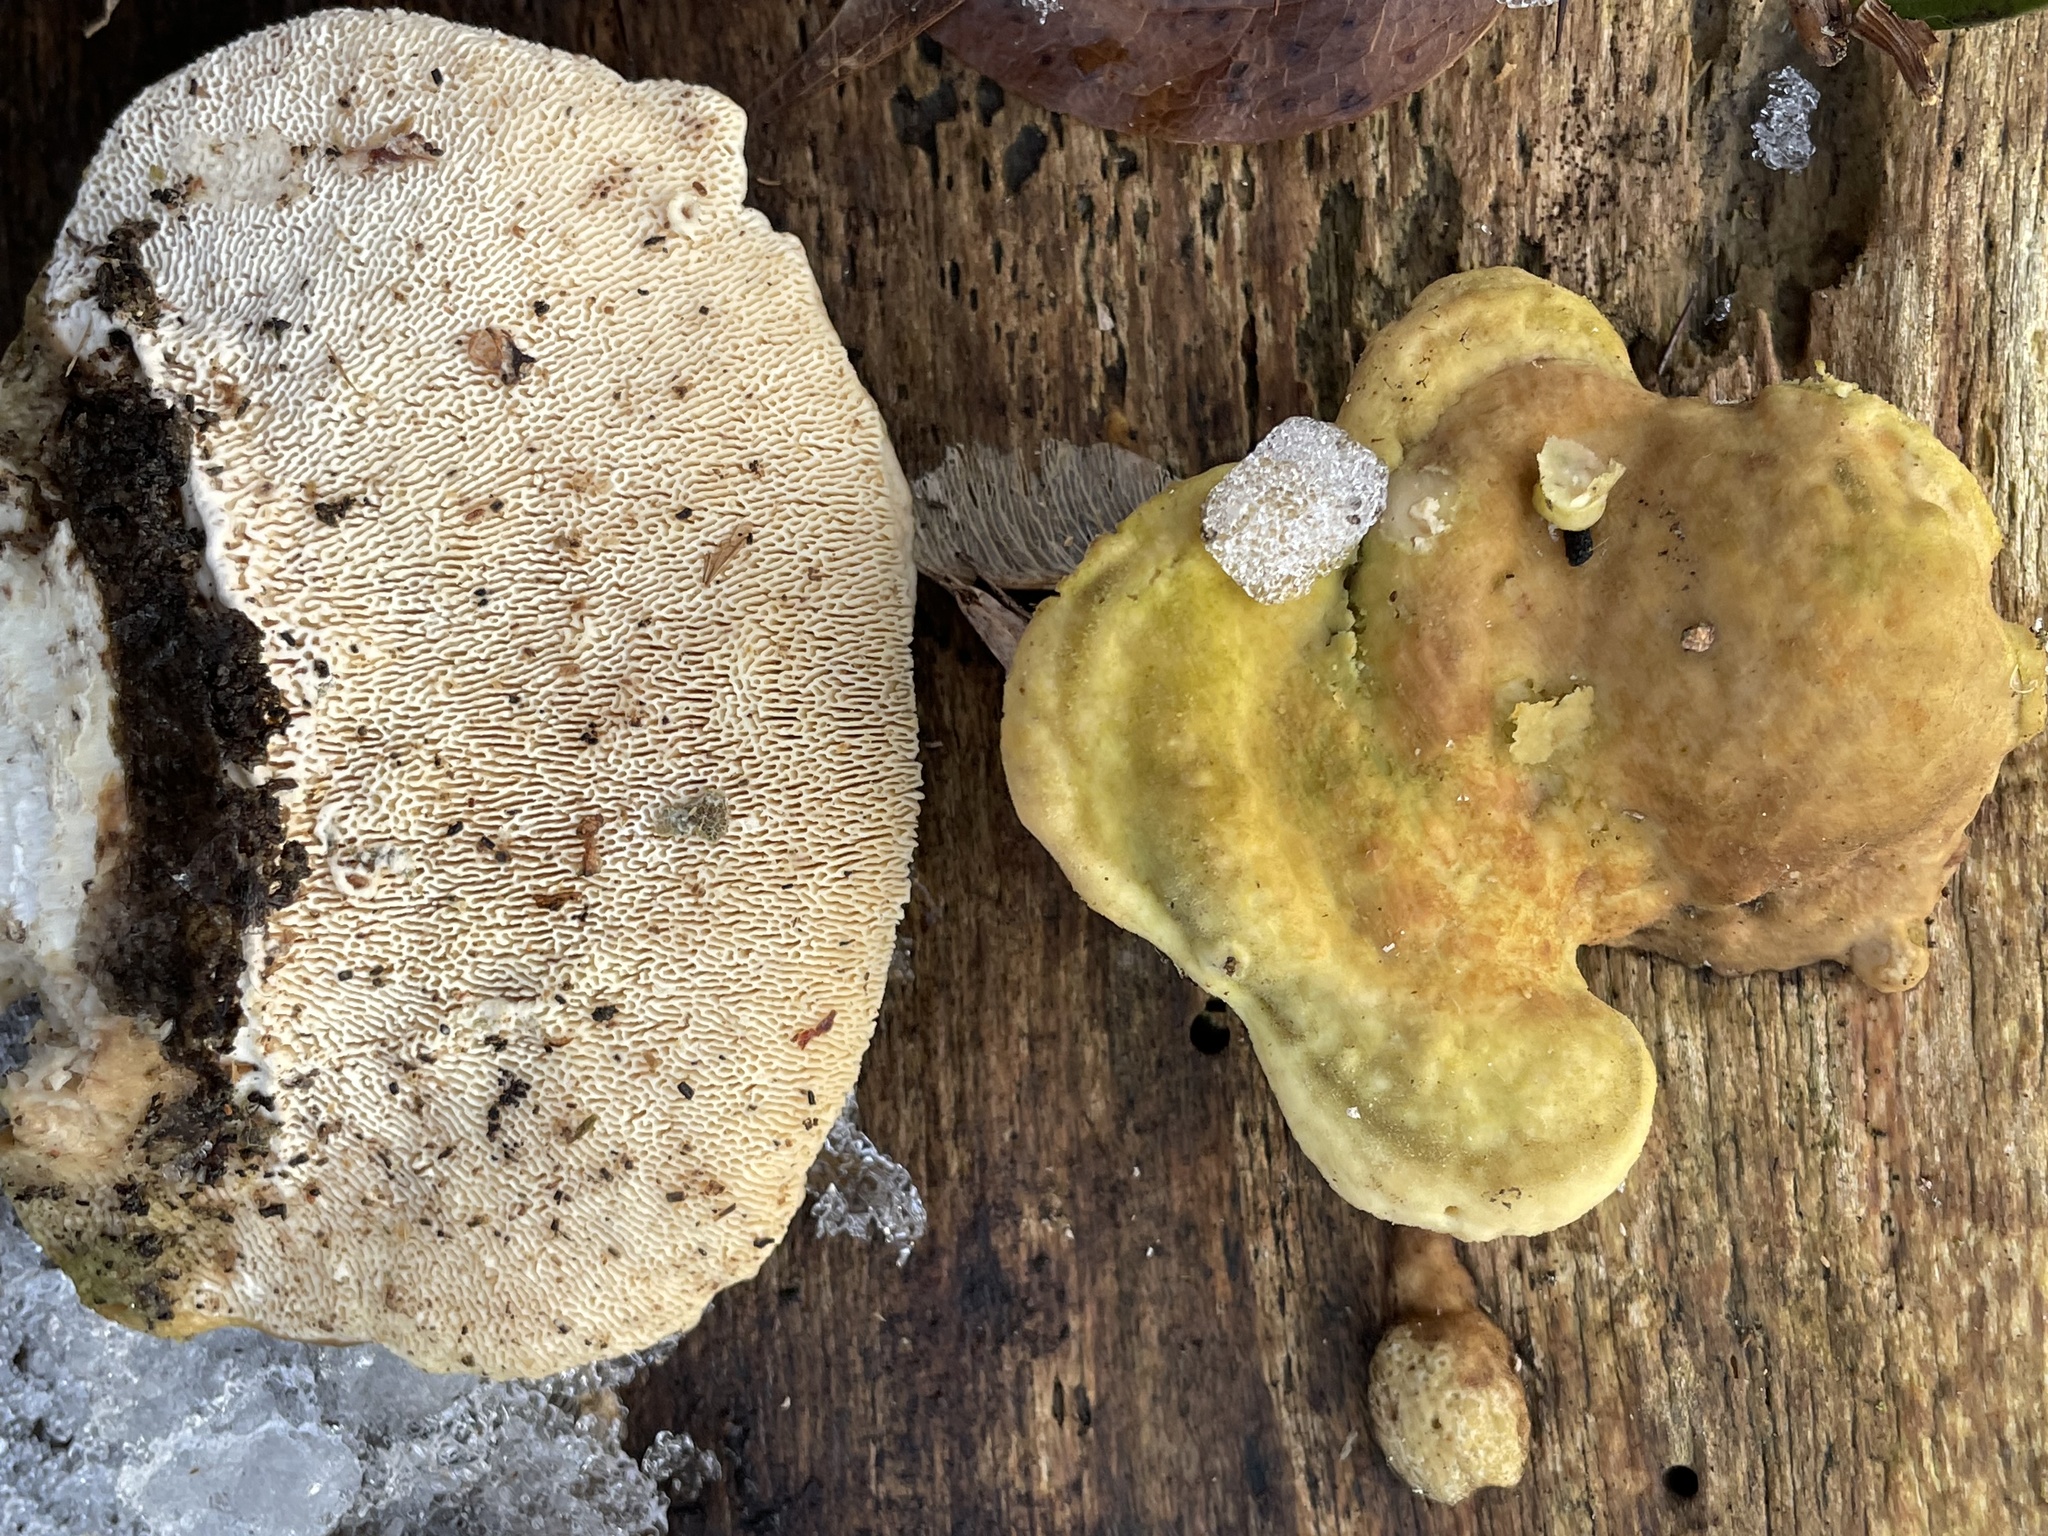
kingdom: Fungi
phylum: Basidiomycota
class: Agaricomycetes
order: Polyporales
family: Polyporaceae
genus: Trametes
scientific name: Trametes gibbosa
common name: Lumpy bracket
